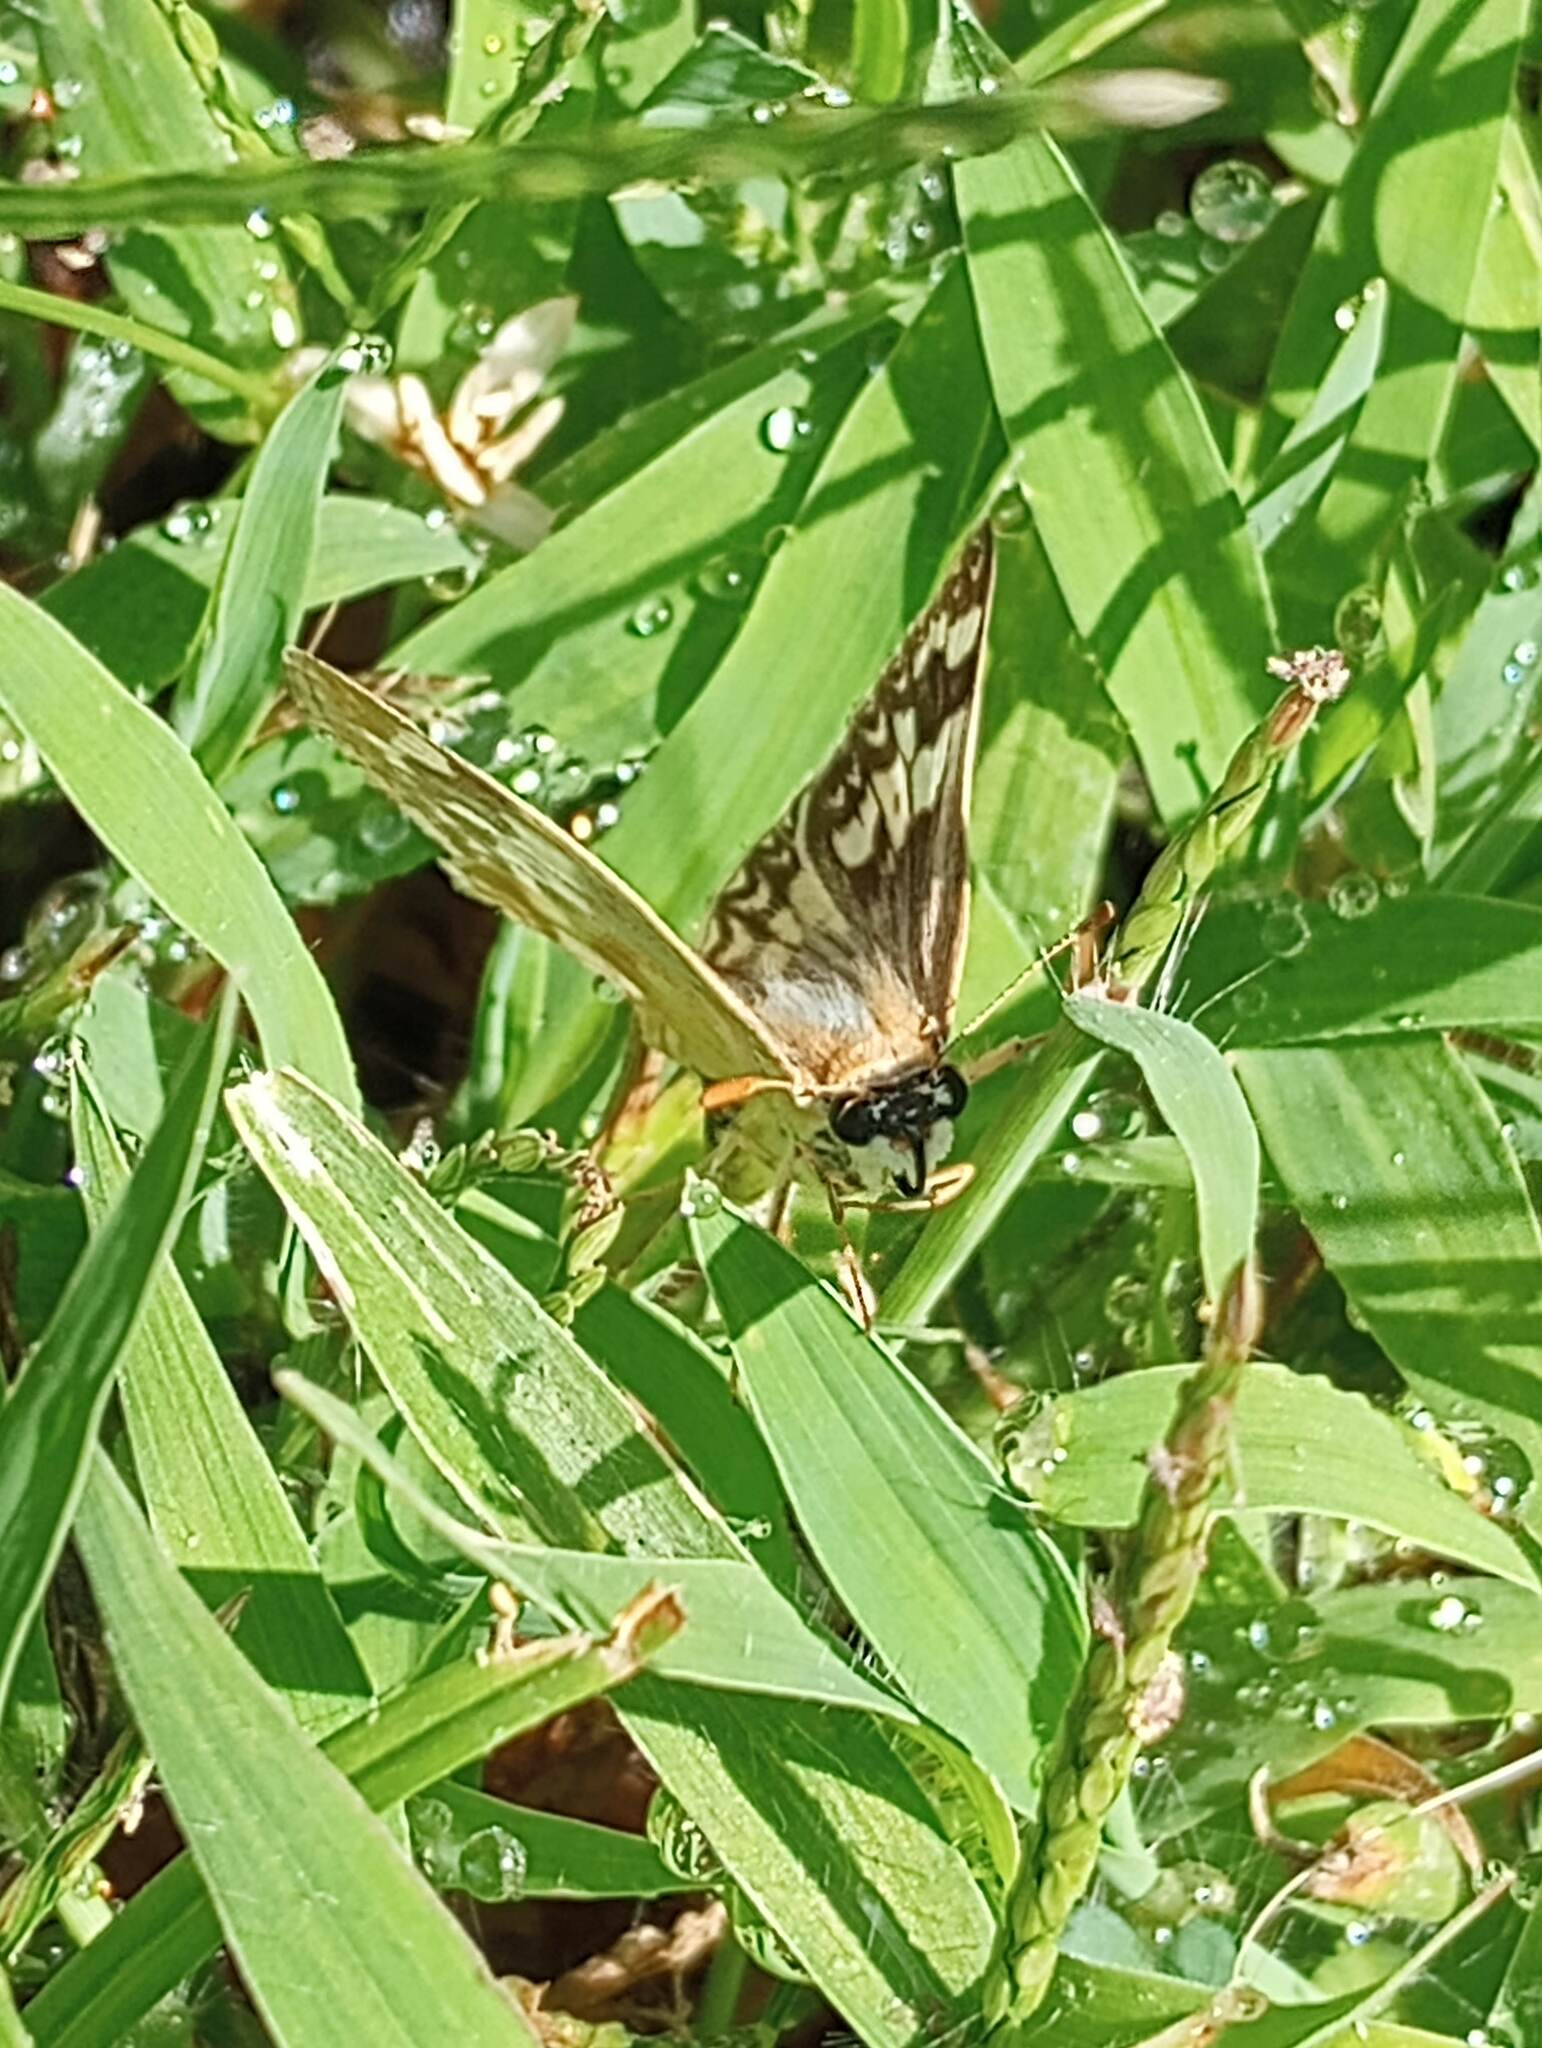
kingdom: Animalia
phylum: Arthropoda
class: Insecta
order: Lepidoptera
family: Hesperiidae
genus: Heliopetes
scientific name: Heliopetes ericetorum
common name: Northern white-skipper
